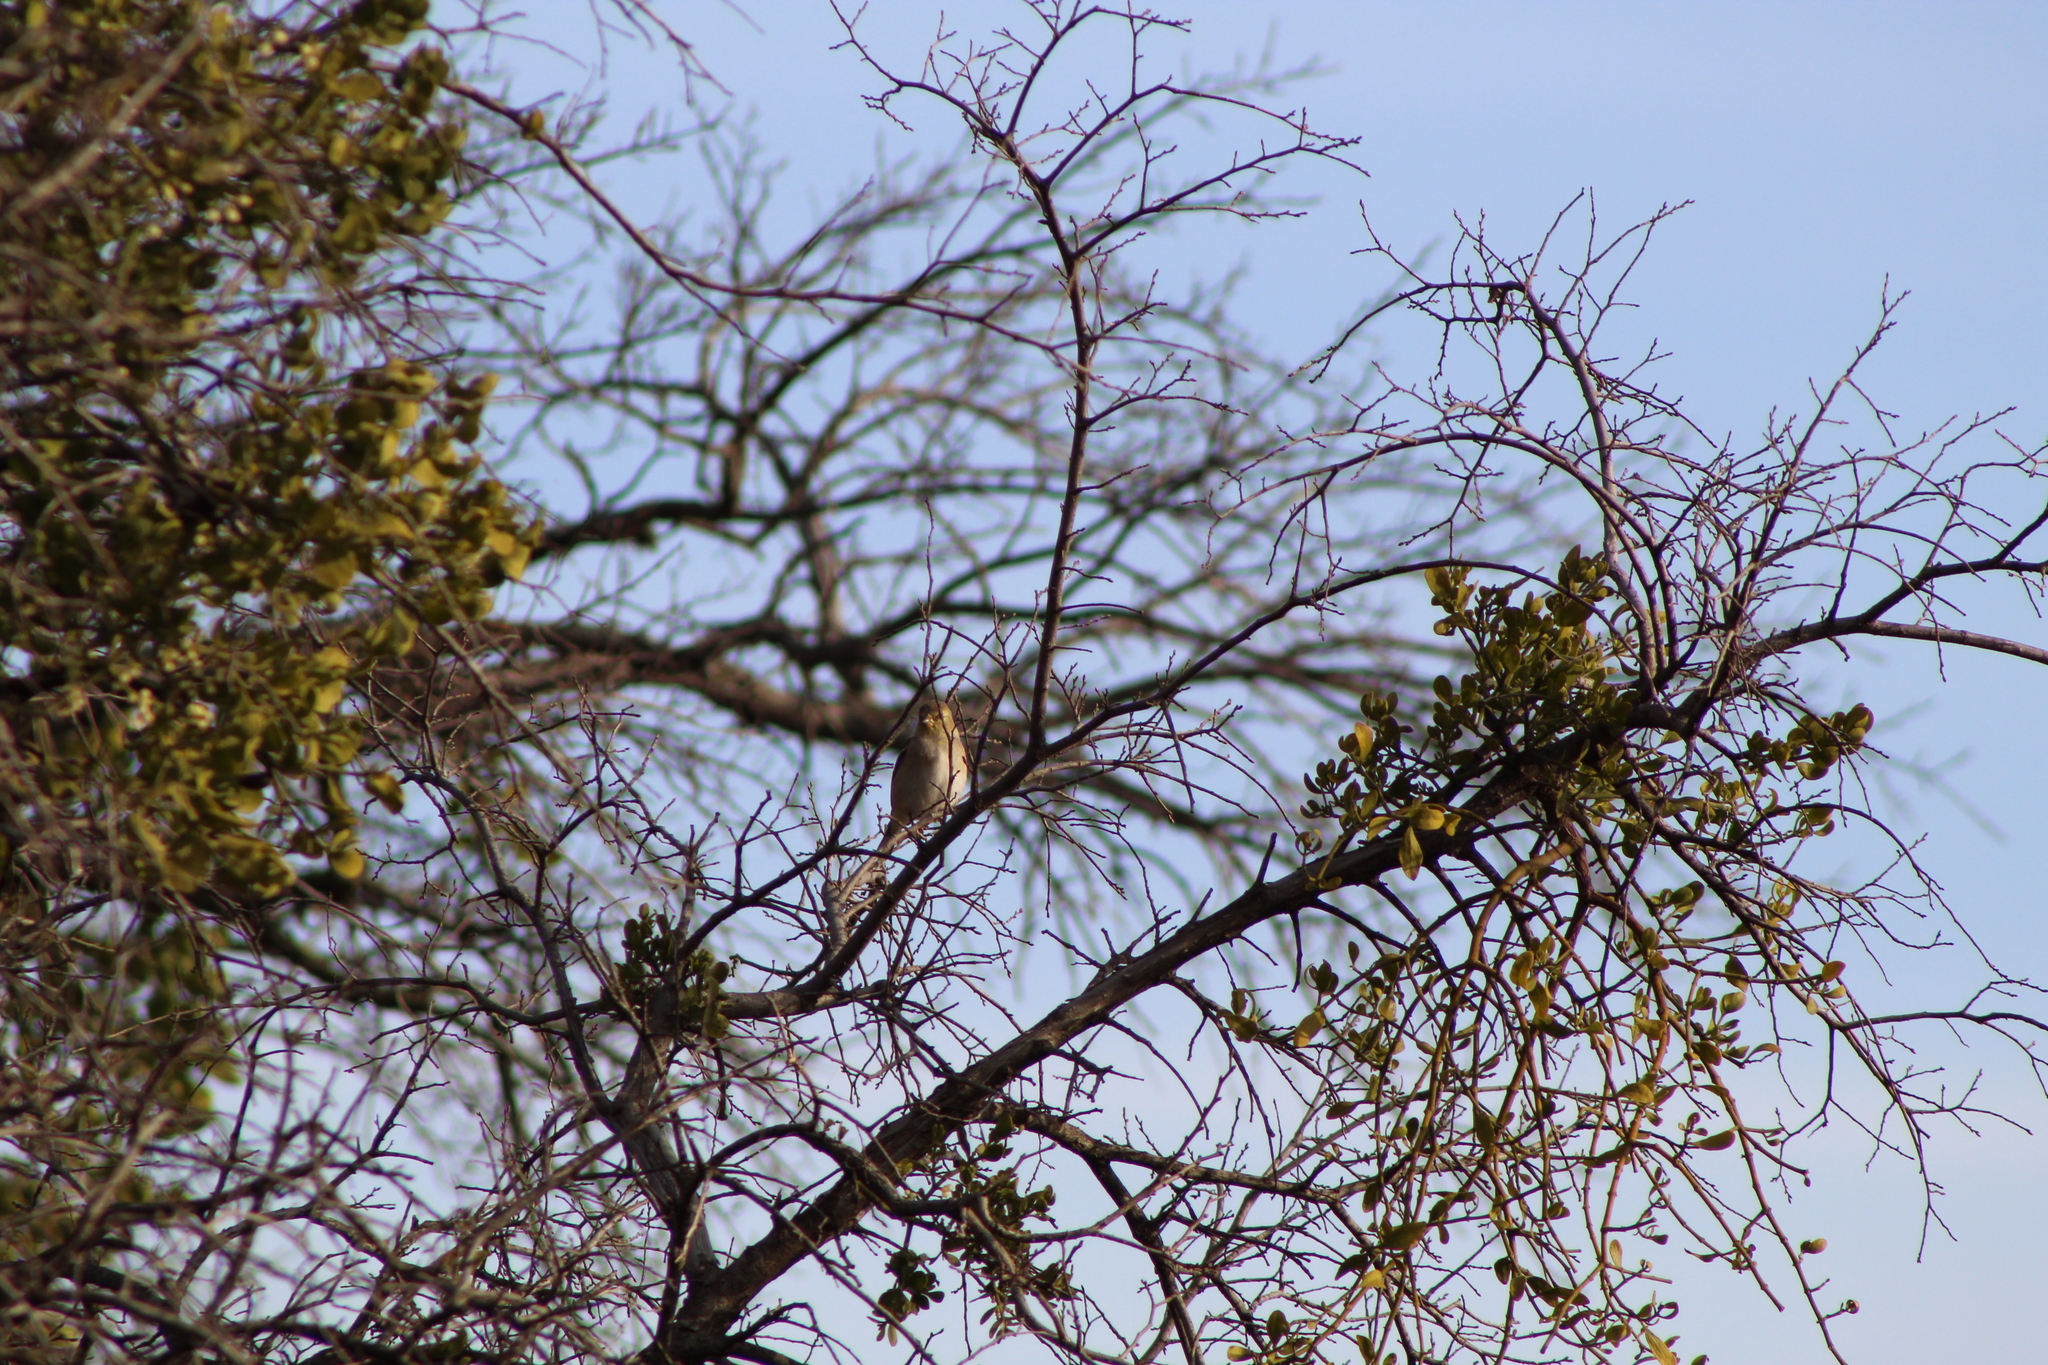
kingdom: Animalia
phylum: Chordata
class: Aves
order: Passeriformes
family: Fringillidae
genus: Spinus
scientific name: Spinus tristis
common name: American goldfinch
